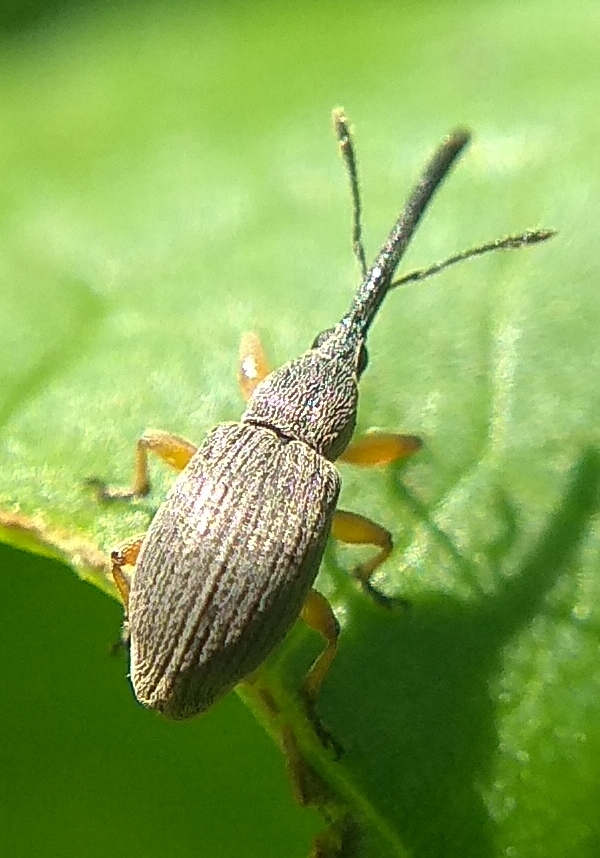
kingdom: Animalia
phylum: Arthropoda
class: Insecta
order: Coleoptera
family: Brentidae
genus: Rhopalapion
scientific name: Rhopalapion longirostre
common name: Hollyhock weevil
